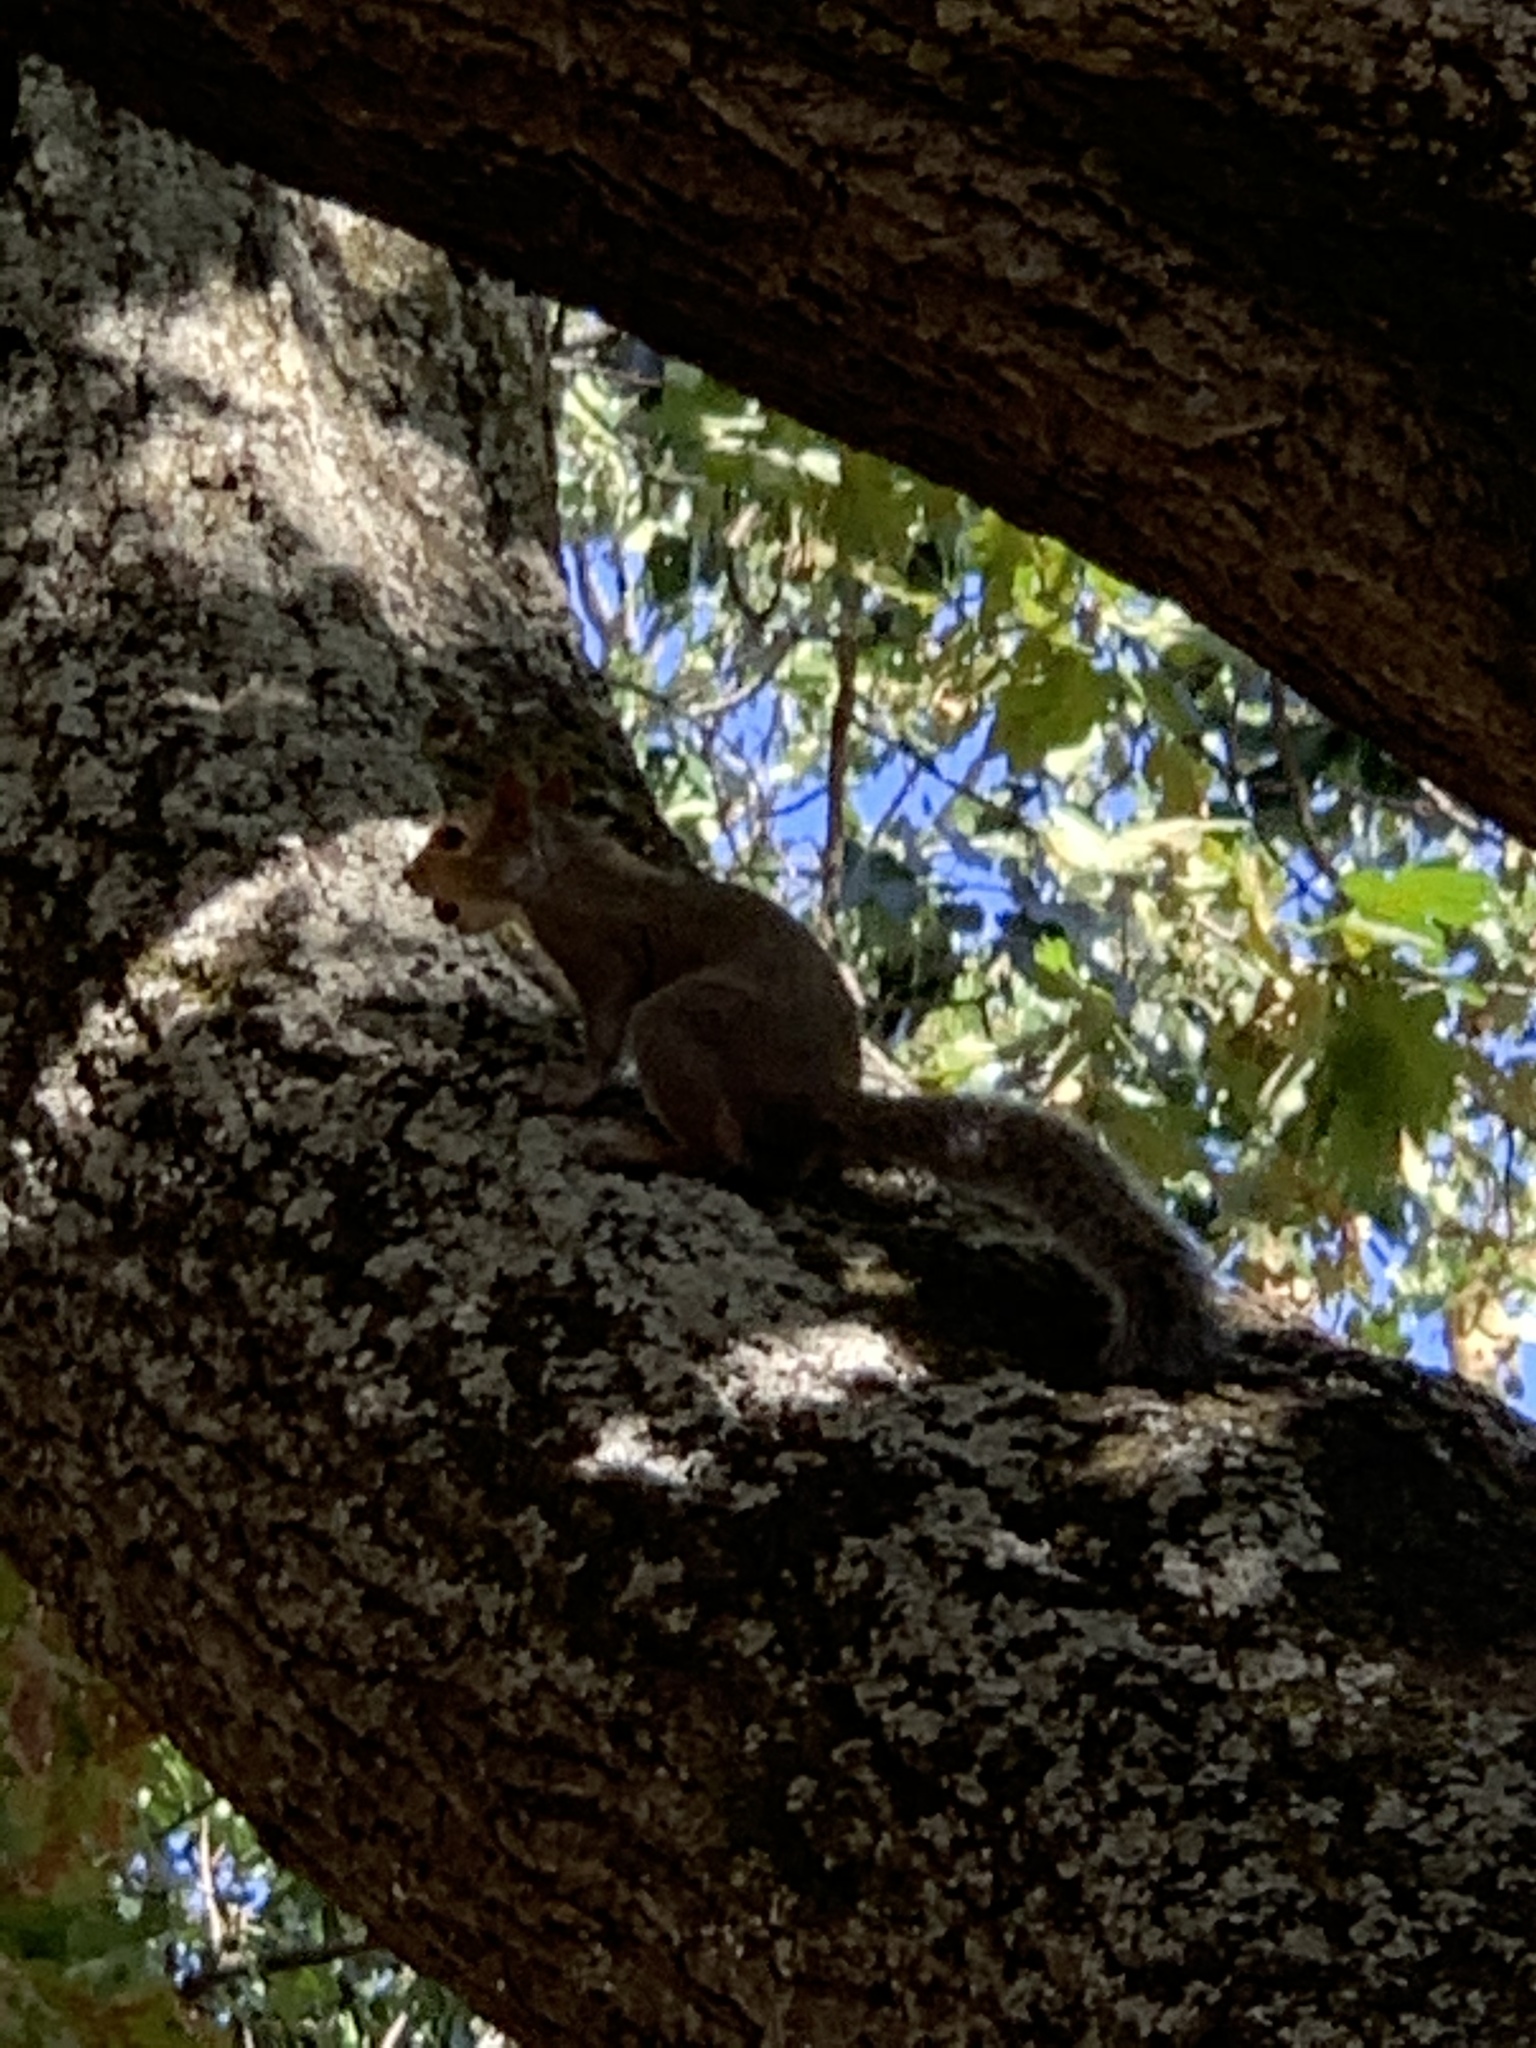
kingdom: Animalia
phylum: Chordata
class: Mammalia
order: Rodentia
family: Sciuridae
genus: Sciurus
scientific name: Sciurus carolinensis
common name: Eastern gray squirrel
